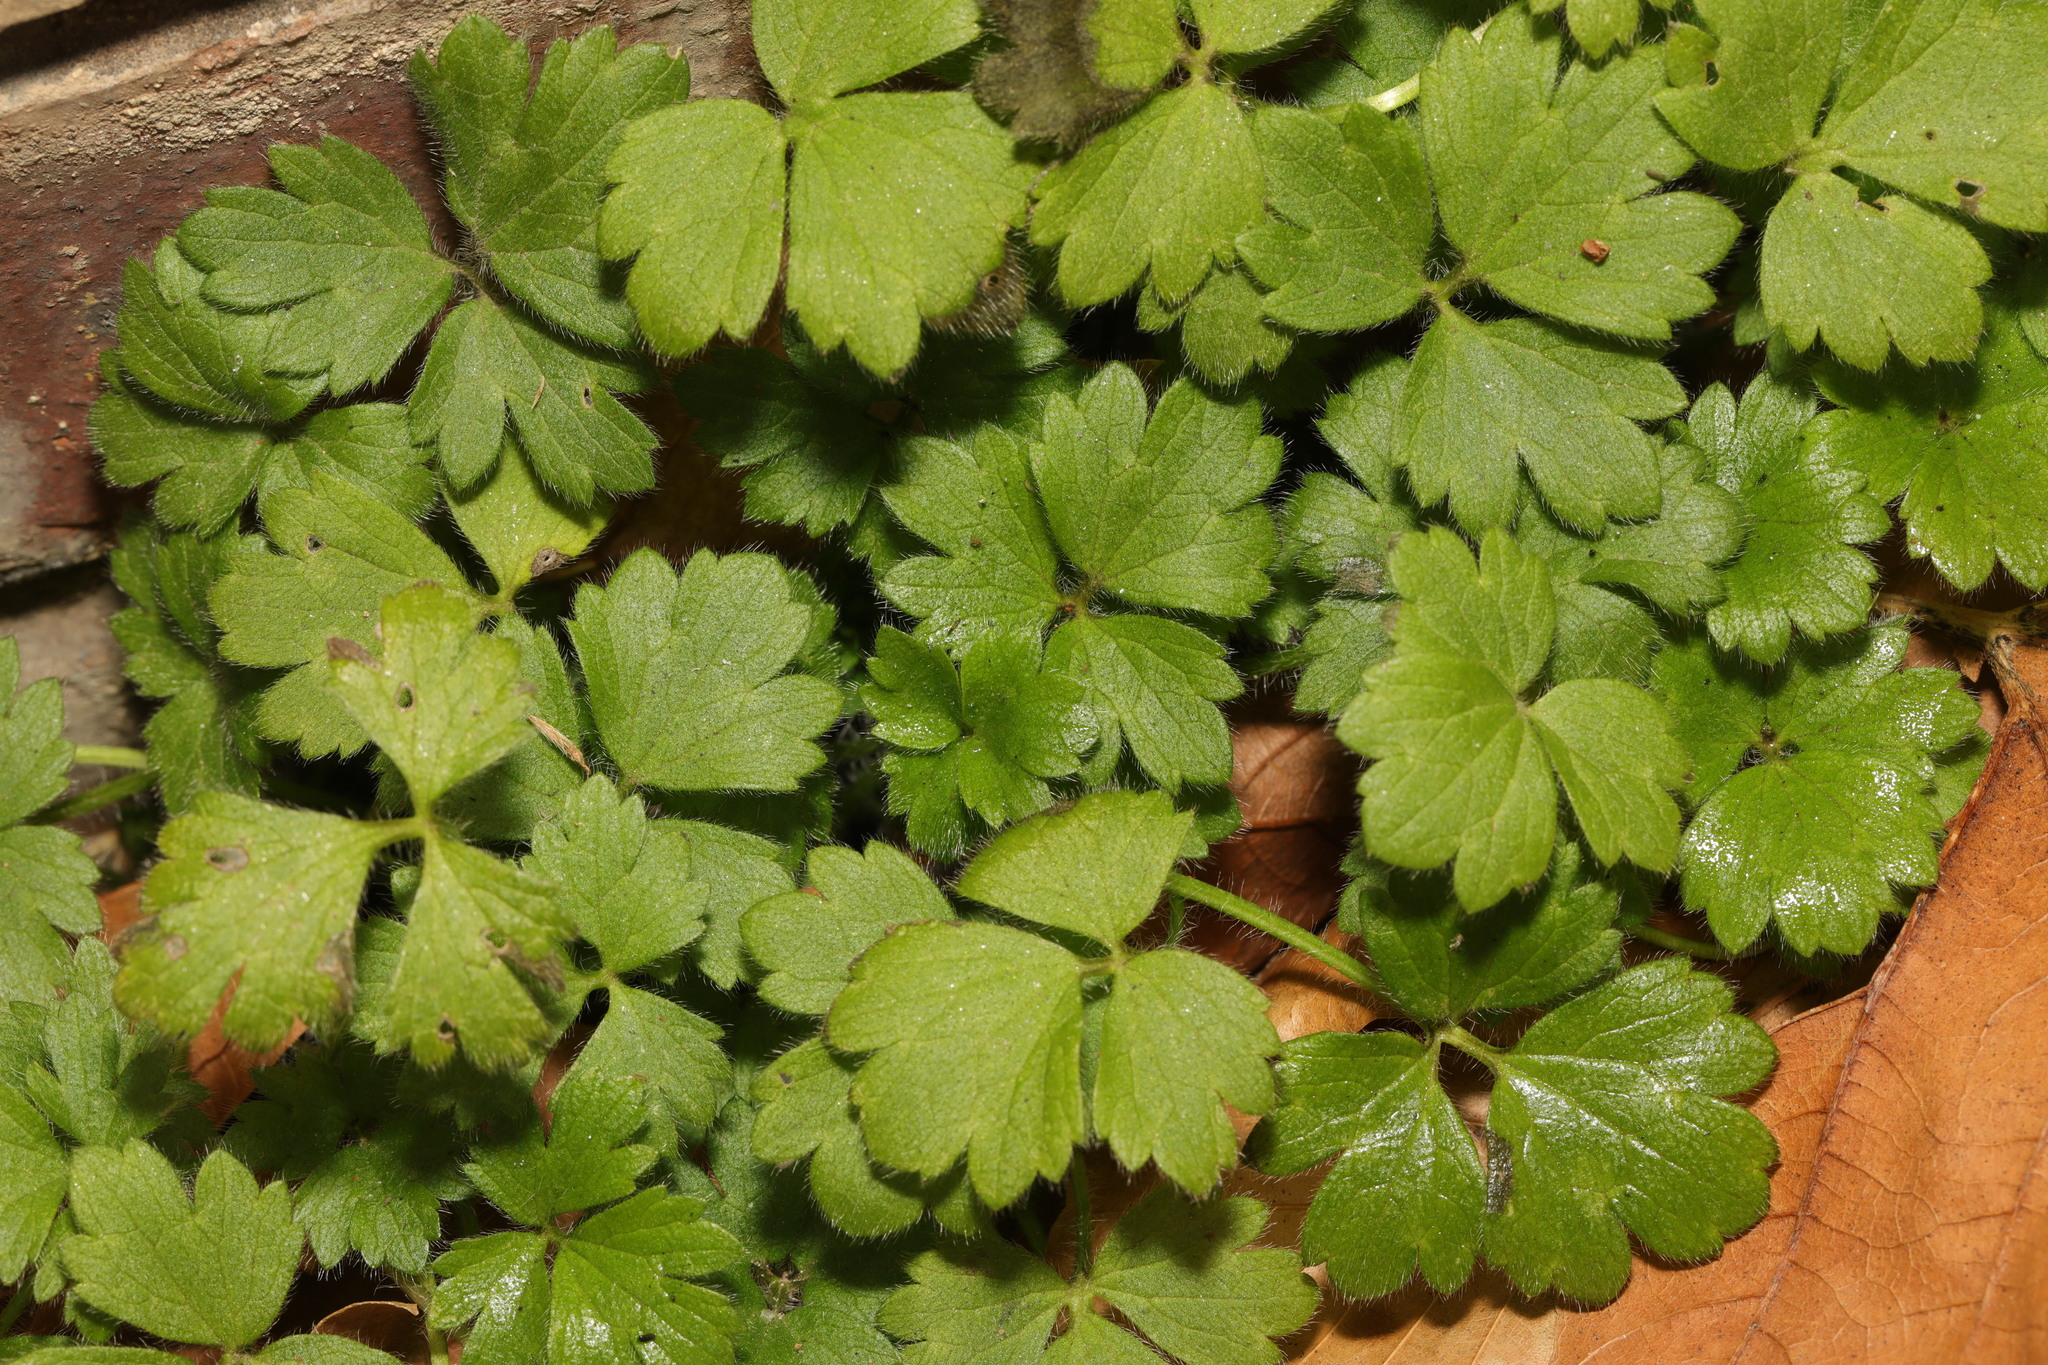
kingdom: Plantae
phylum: Tracheophyta
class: Magnoliopsida
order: Ranunculales
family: Ranunculaceae
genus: Ranunculus
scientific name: Ranunculus repens
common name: Creeping buttercup
